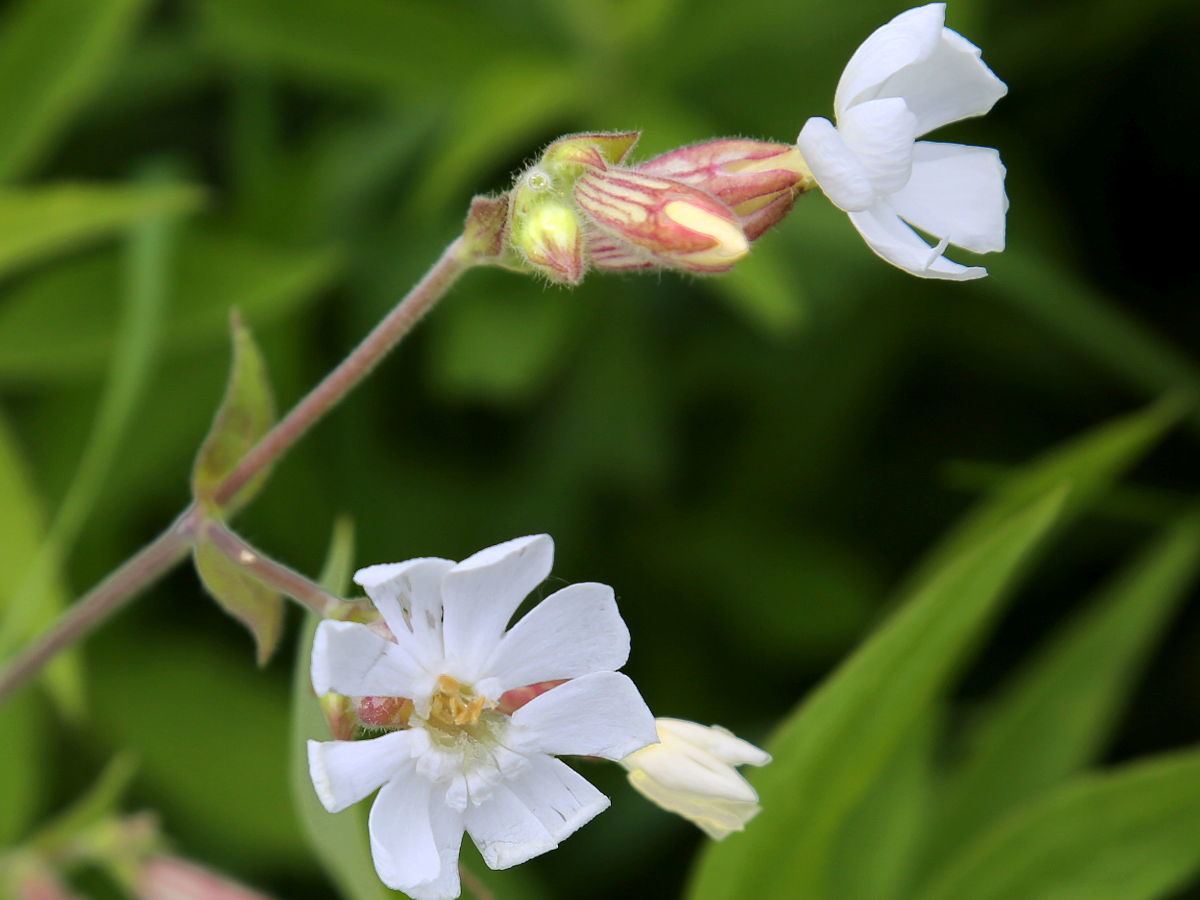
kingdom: Plantae
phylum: Tracheophyta
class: Magnoliopsida
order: Caryophyllales
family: Caryophyllaceae
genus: Silene
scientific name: Silene latifolia
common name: White campion
